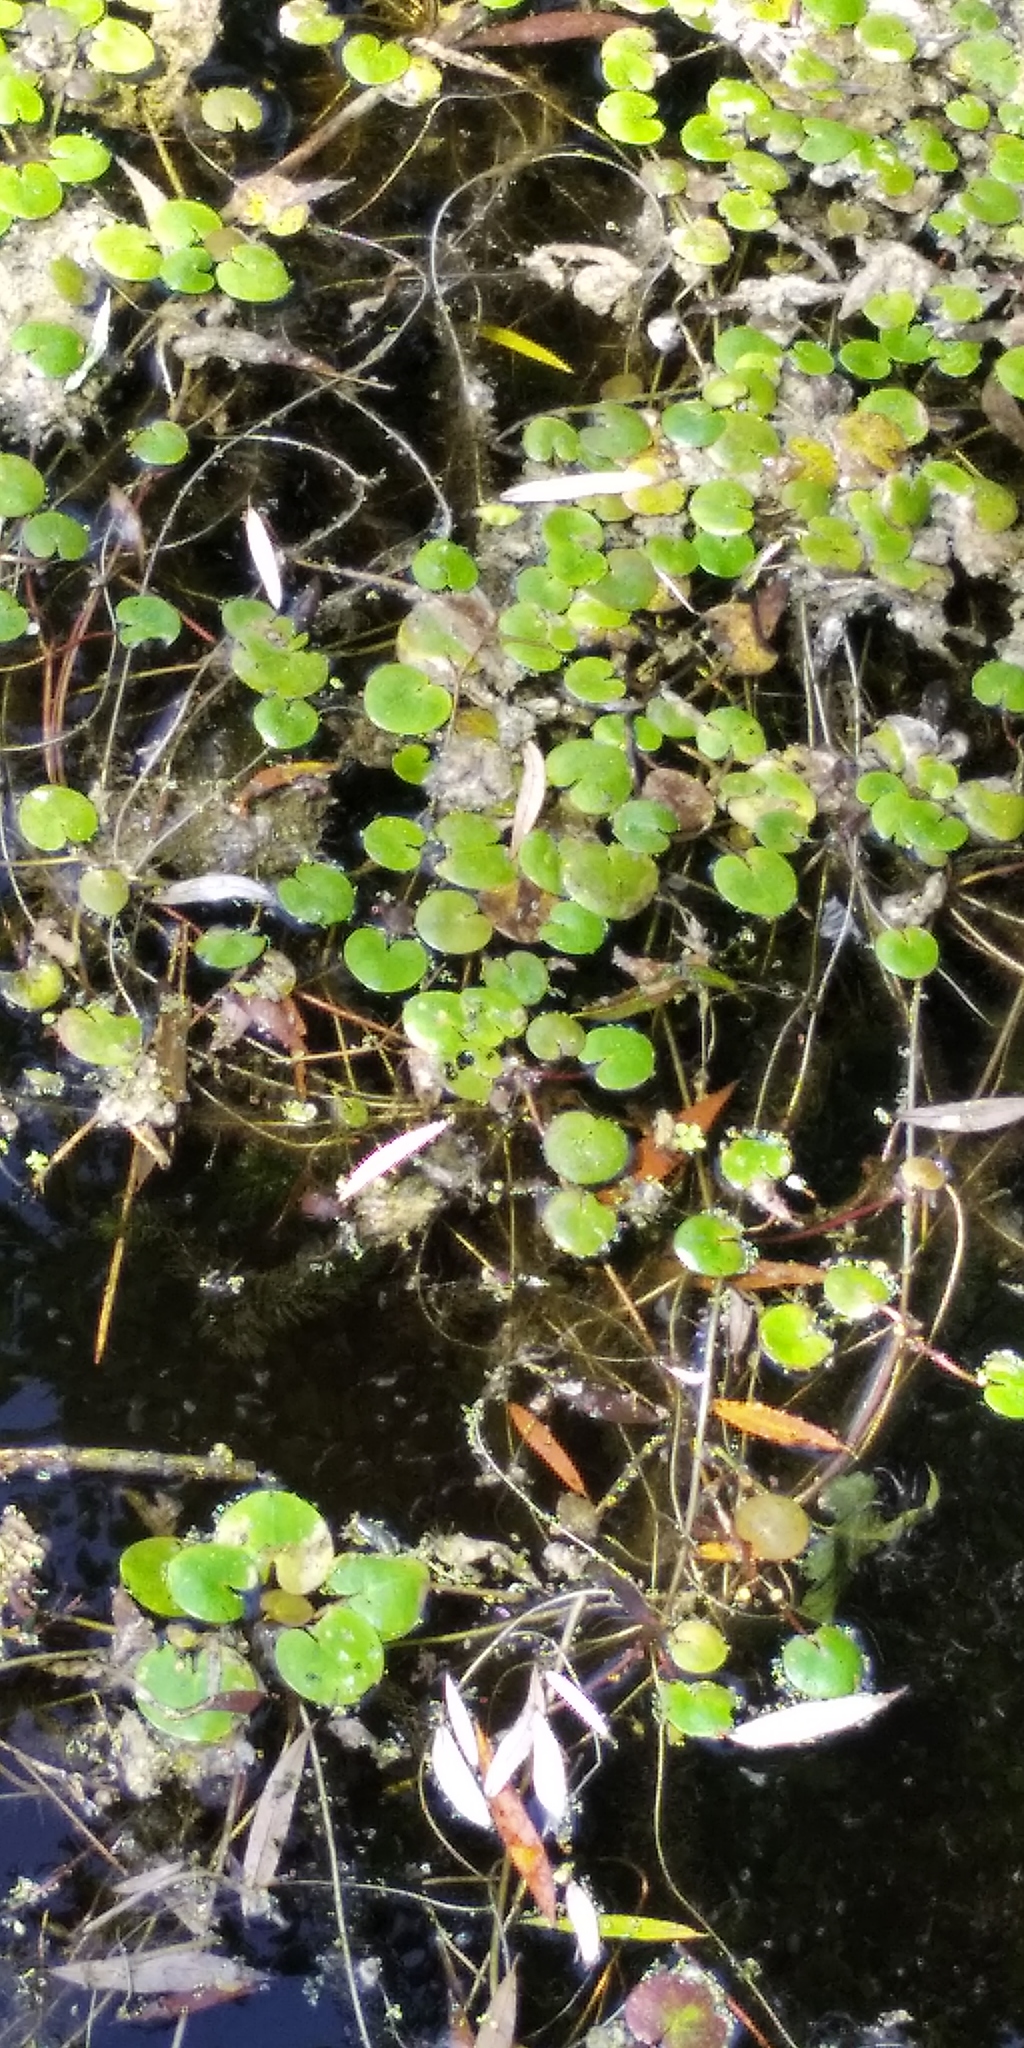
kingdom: Plantae
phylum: Tracheophyta
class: Liliopsida
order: Alismatales
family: Hydrocharitaceae
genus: Hydrocharis
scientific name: Hydrocharis morsus-ranae
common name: Frogbit
